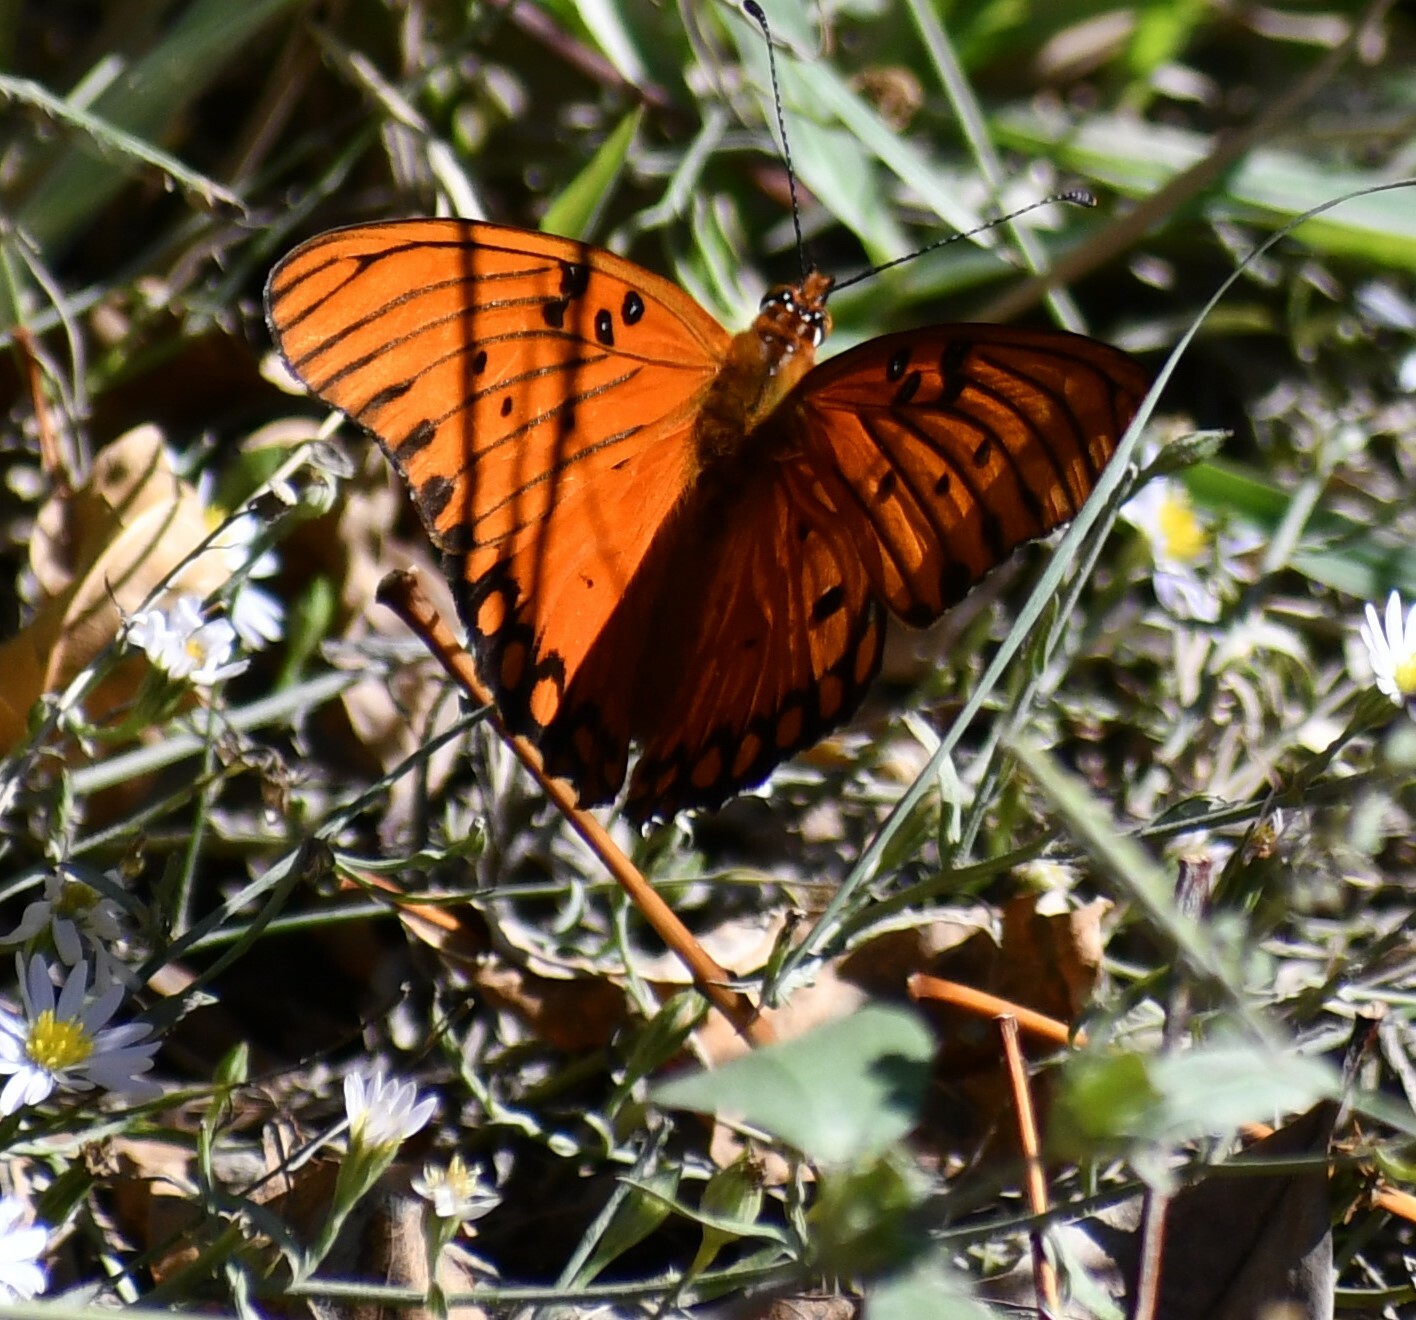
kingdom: Animalia
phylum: Arthropoda
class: Insecta
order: Lepidoptera
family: Nymphalidae
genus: Dione
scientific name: Dione vanillae
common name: Gulf fritillary
